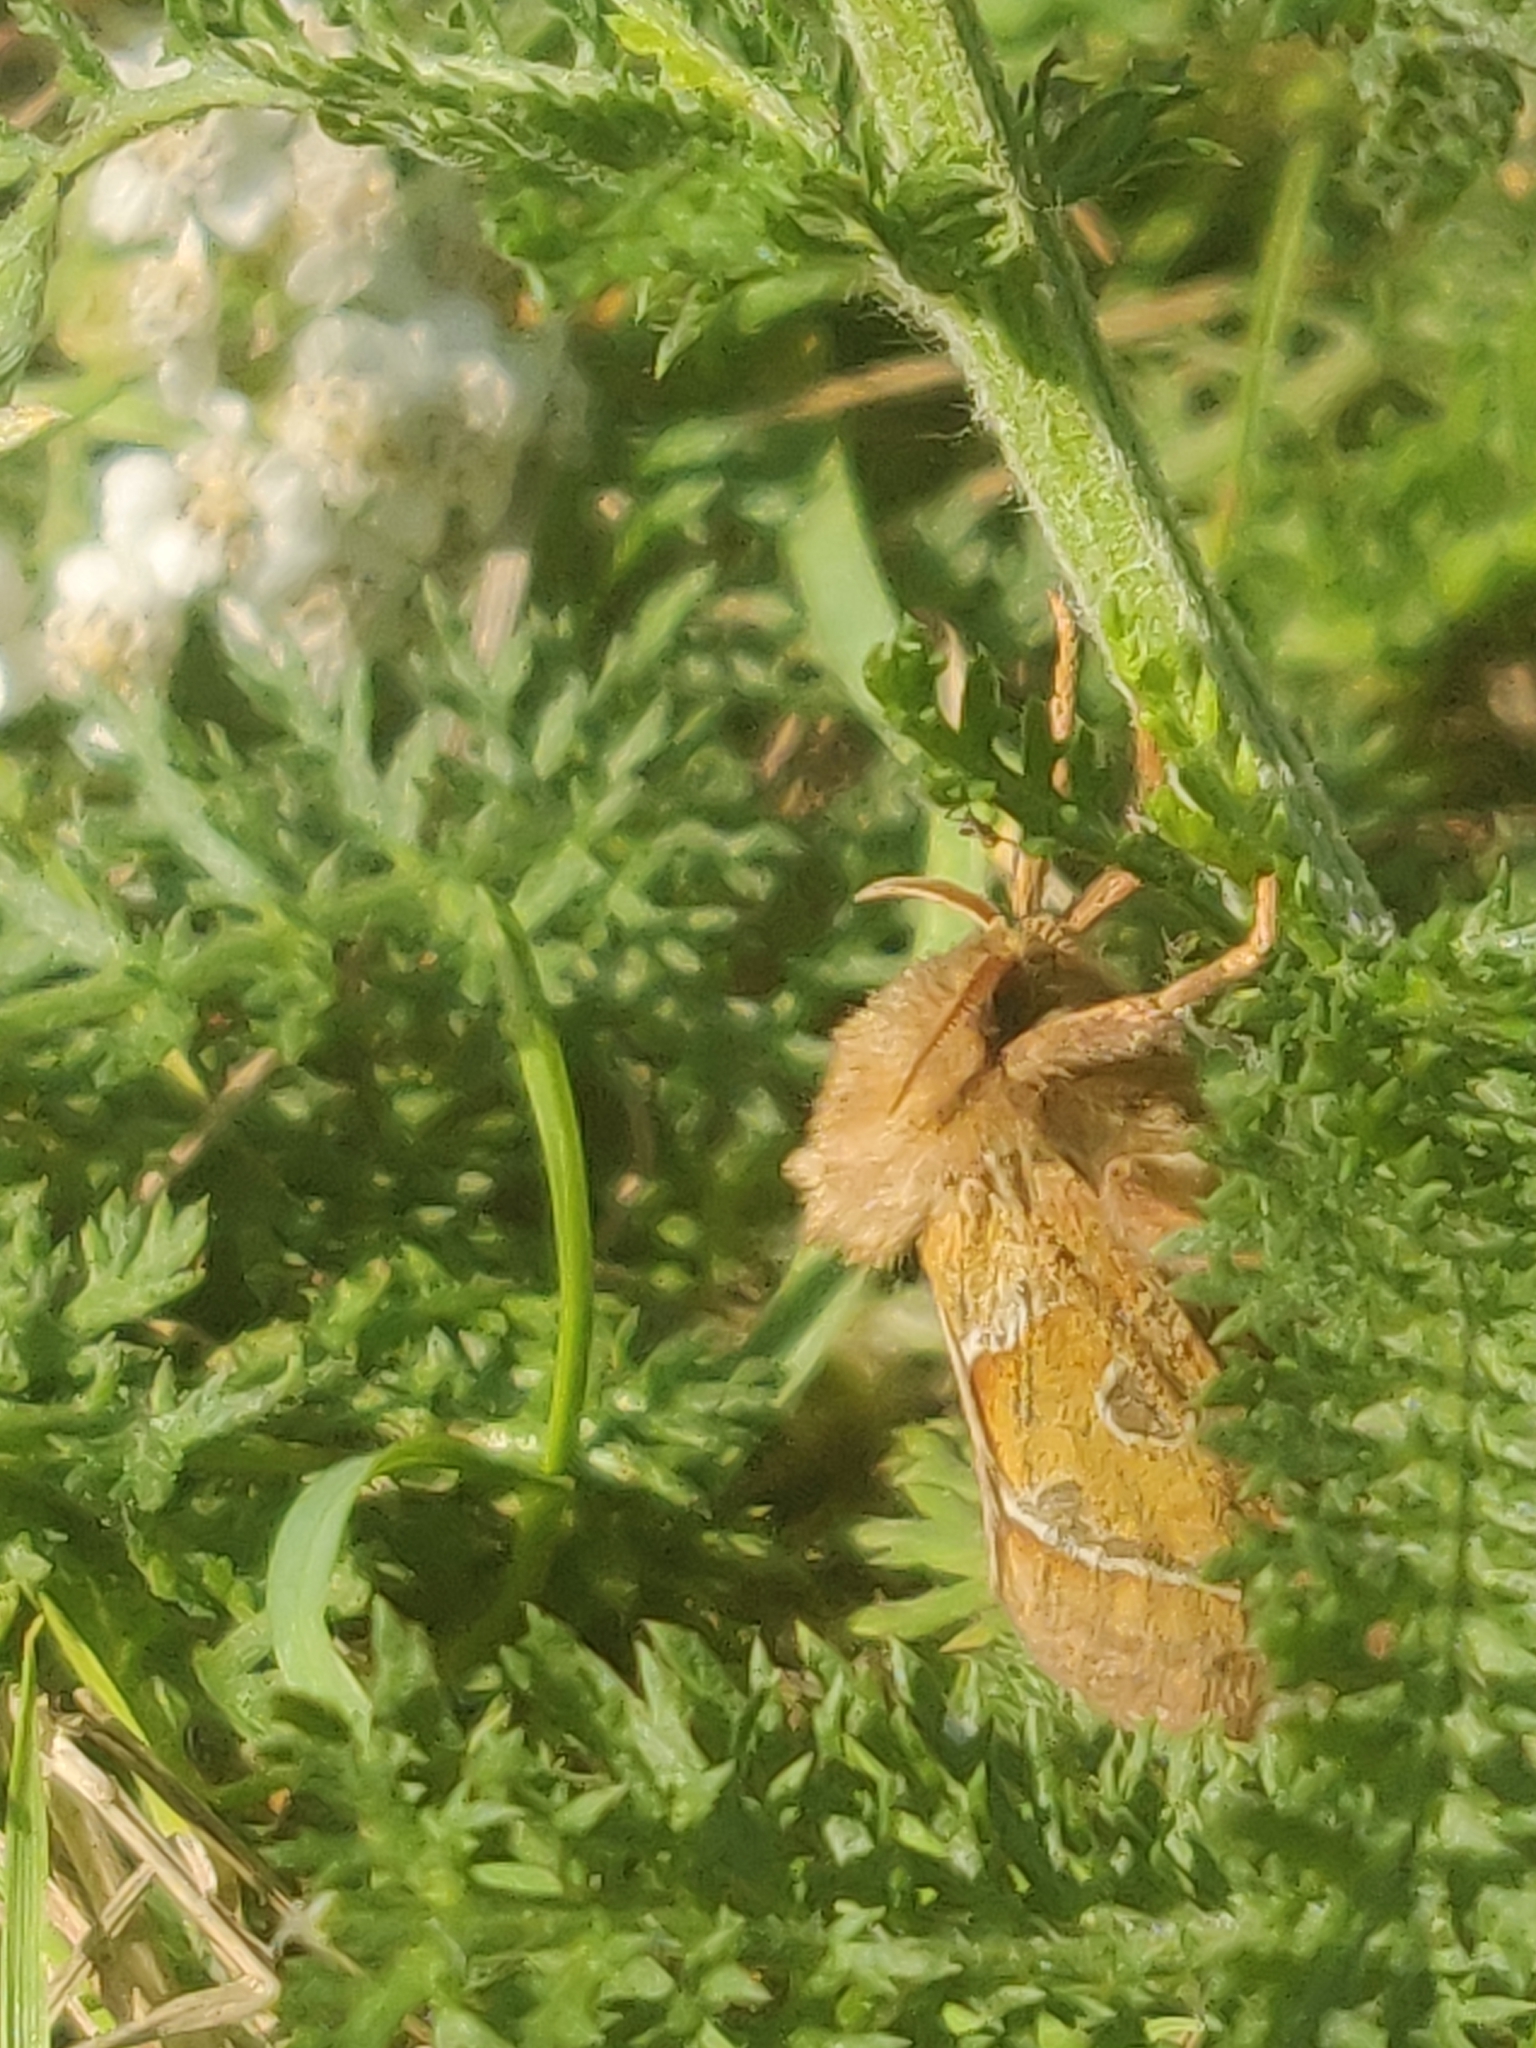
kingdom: Animalia
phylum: Arthropoda
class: Insecta
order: Lepidoptera
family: Hepialidae
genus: Triodia
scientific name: Triodia sylvina
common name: Orange swift
